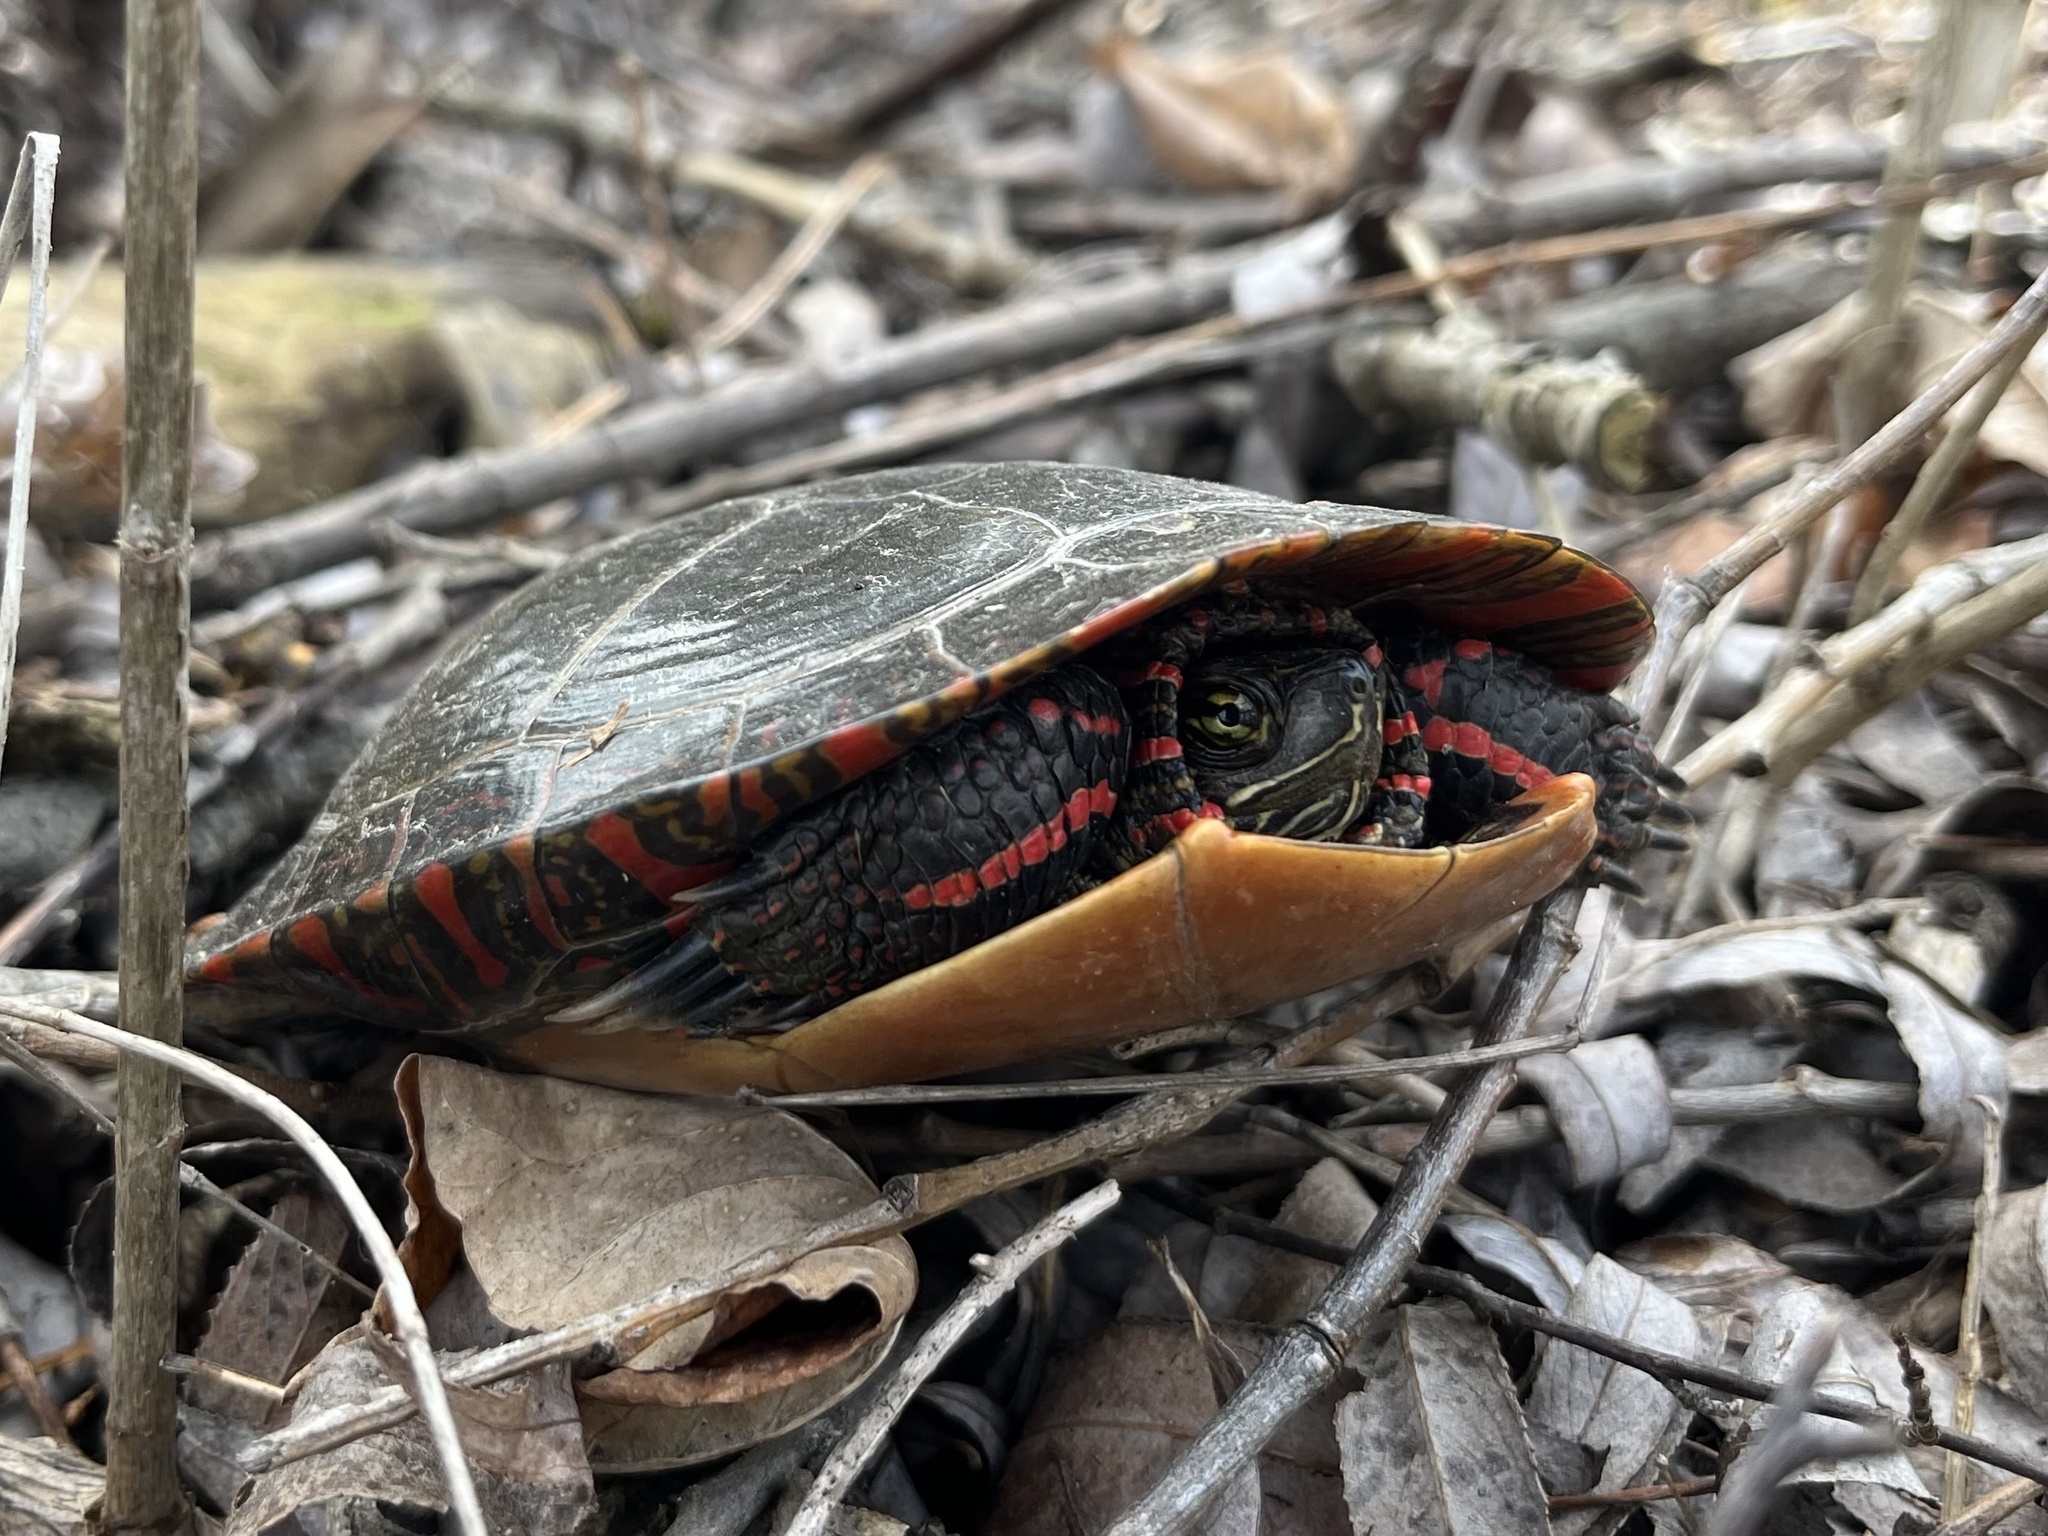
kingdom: Animalia
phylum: Chordata
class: Testudines
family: Emydidae
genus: Chrysemys
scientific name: Chrysemys picta
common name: Painted turtle
